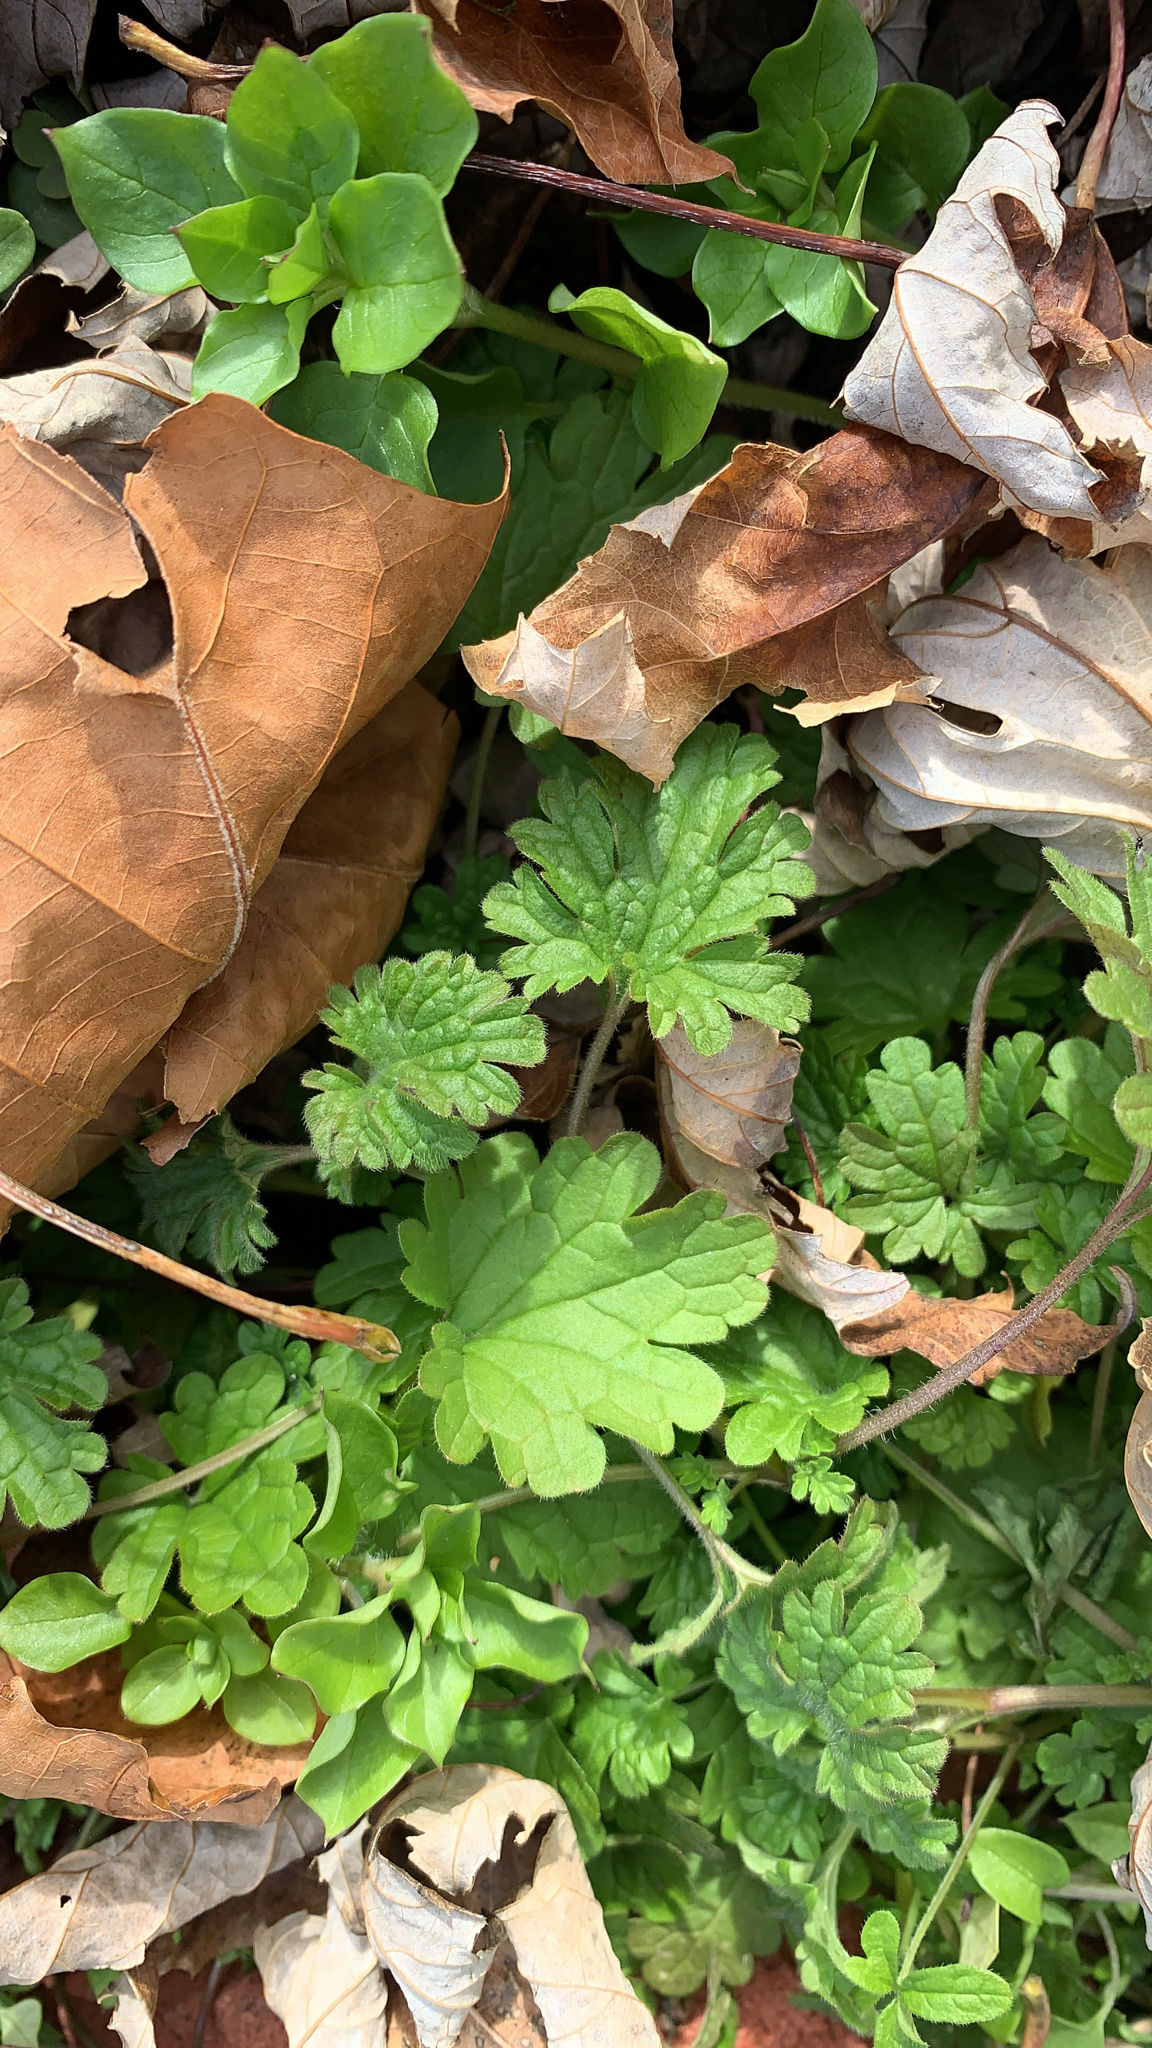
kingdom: Plantae
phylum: Tracheophyta
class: Magnoliopsida
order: Lamiales
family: Lamiaceae
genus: Lamium
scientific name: Lamium amplexicaule
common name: Henbit dead-nettle
